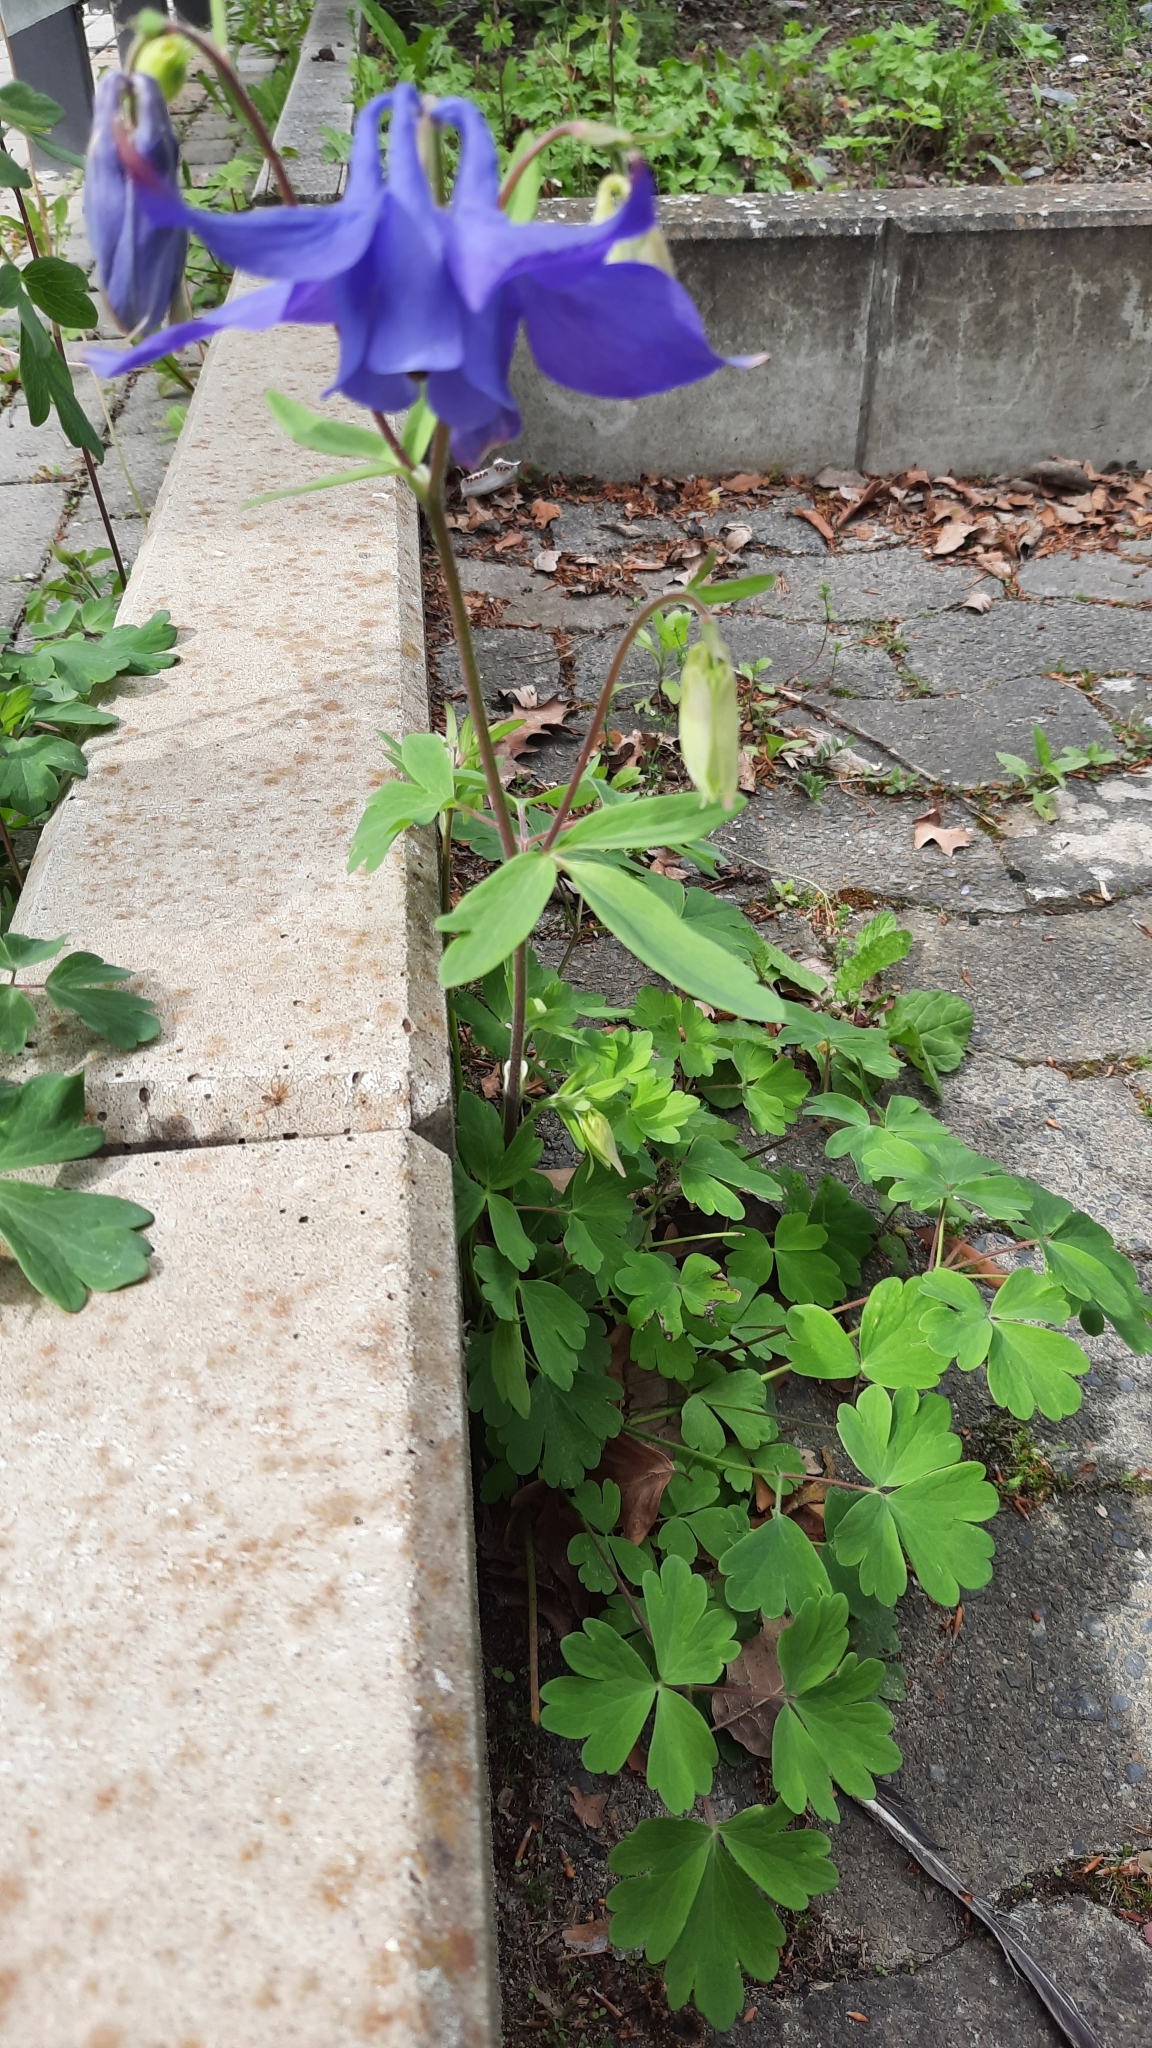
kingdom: Plantae
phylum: Tracheophyta
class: Magnoliopsida
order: Ranunculales
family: Ranunculaceae
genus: Aquilegia
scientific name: Aquilegia vulgaris
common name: Columbine
